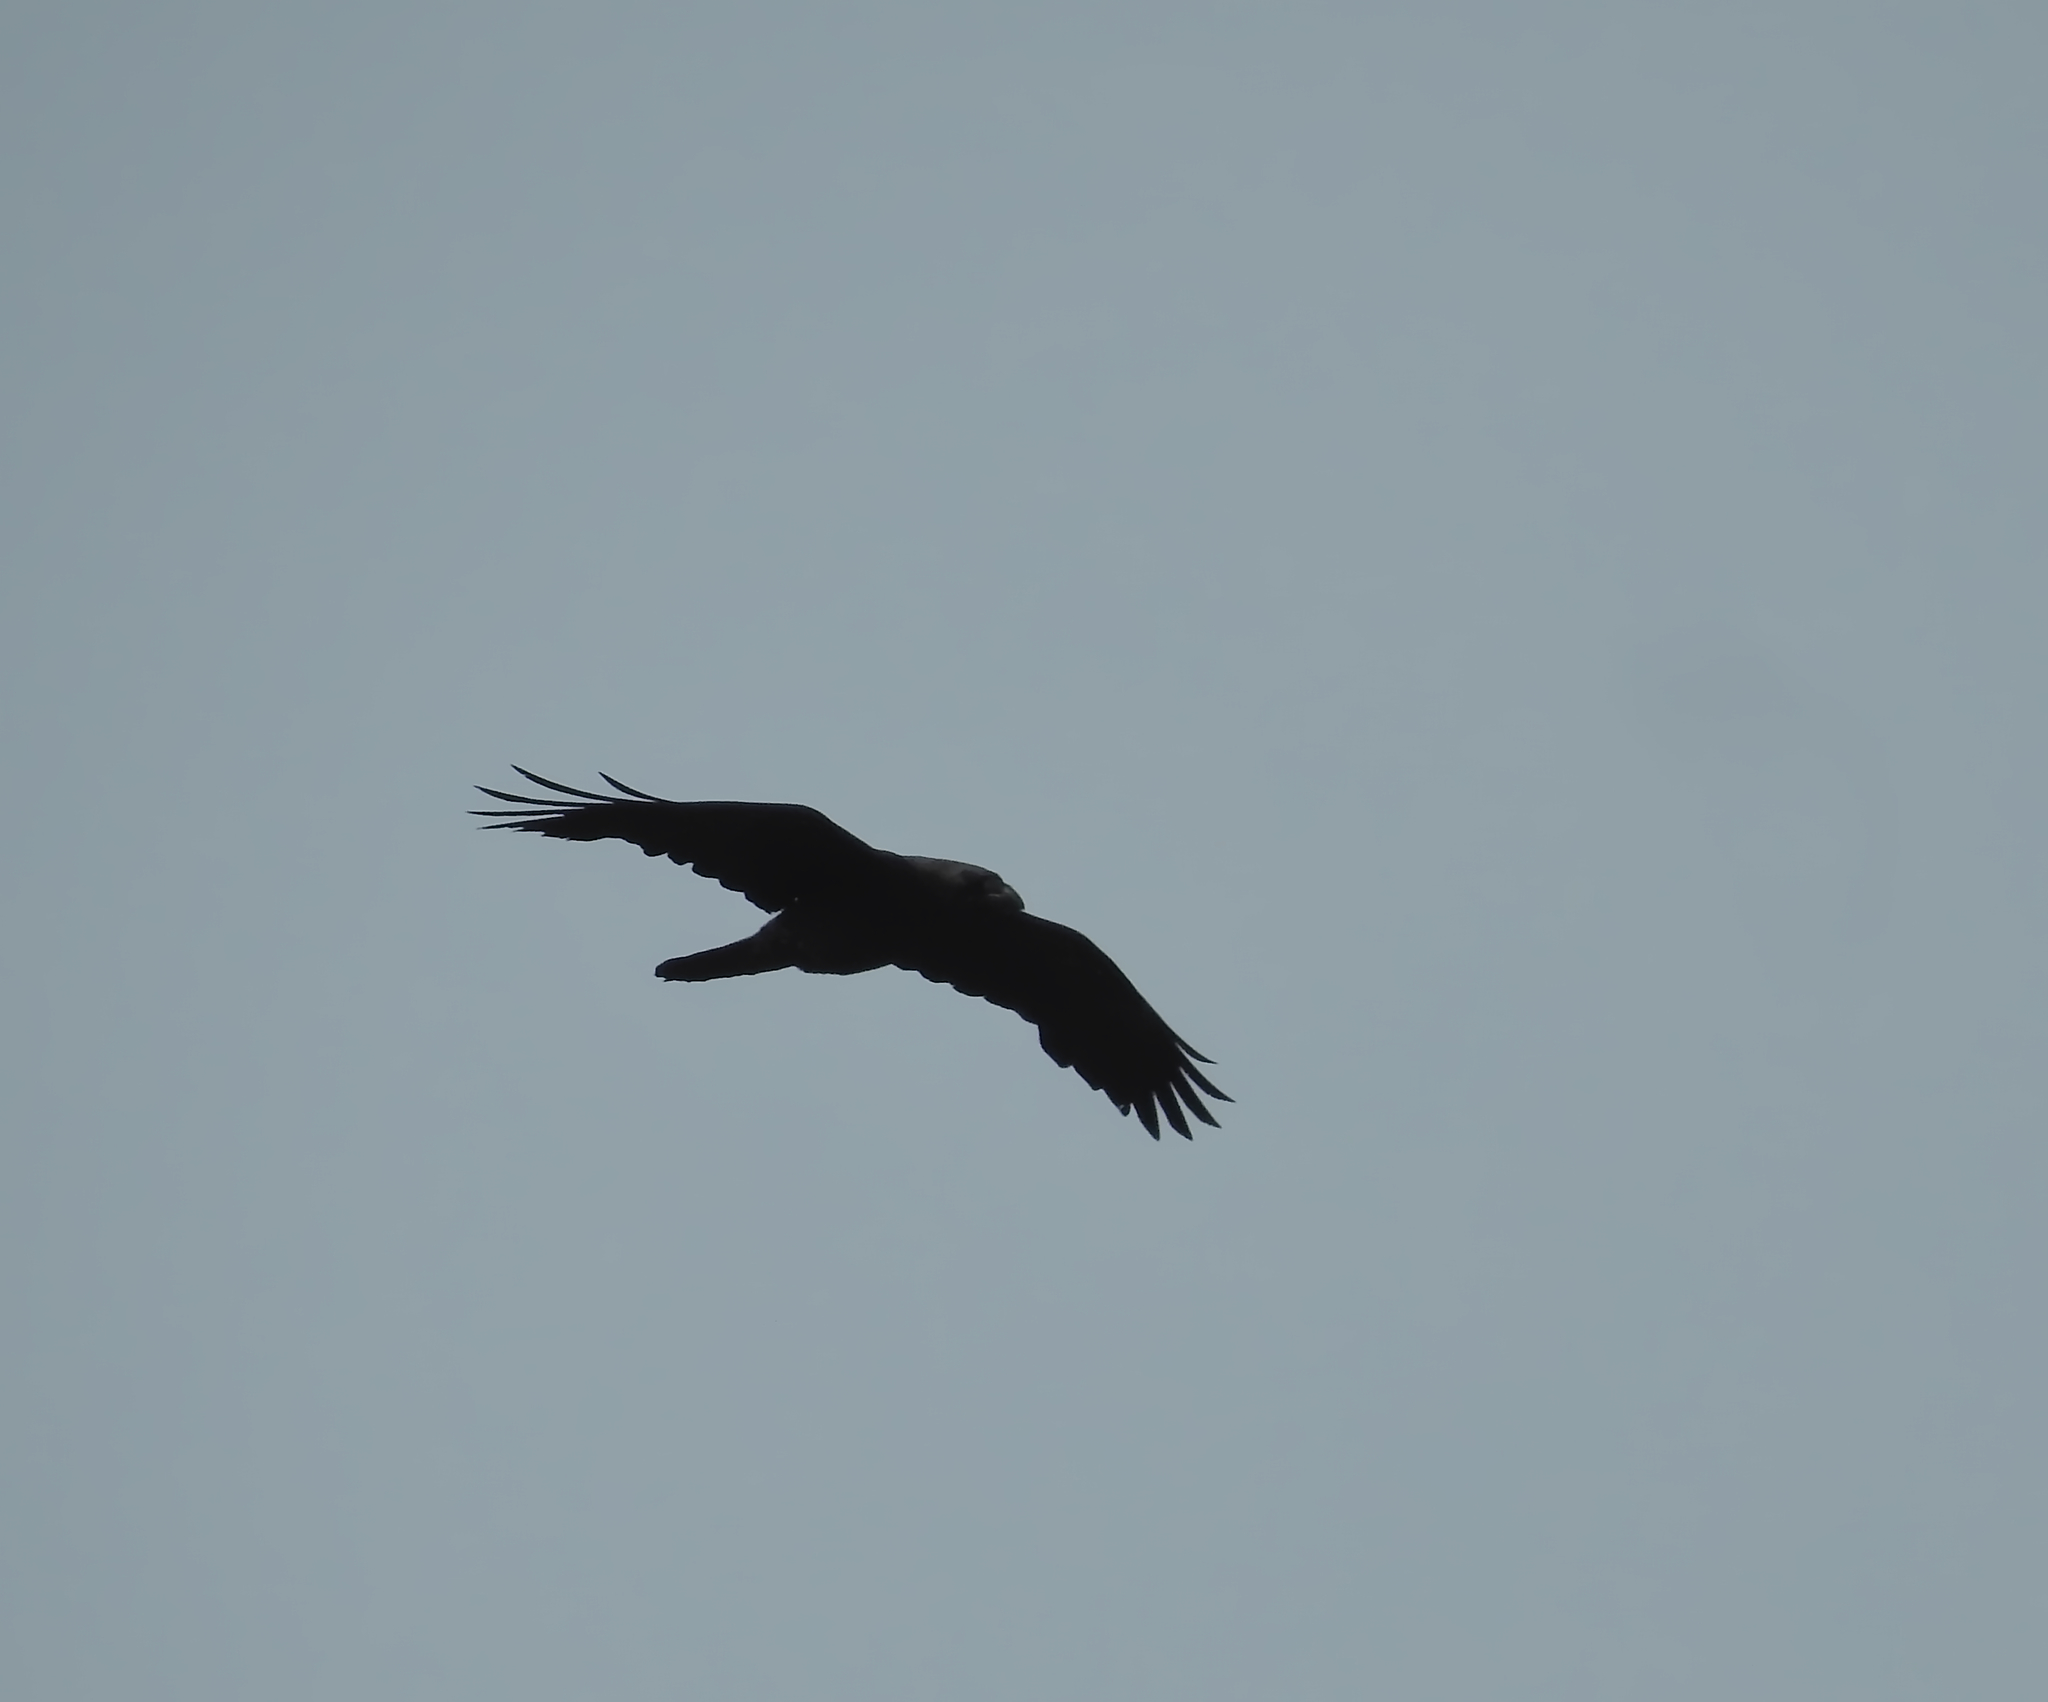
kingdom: Animalia
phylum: Chordata
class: Aves
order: Passeriformes
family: Corvidae
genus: Corvus
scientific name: Corvus corax
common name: Common raven
